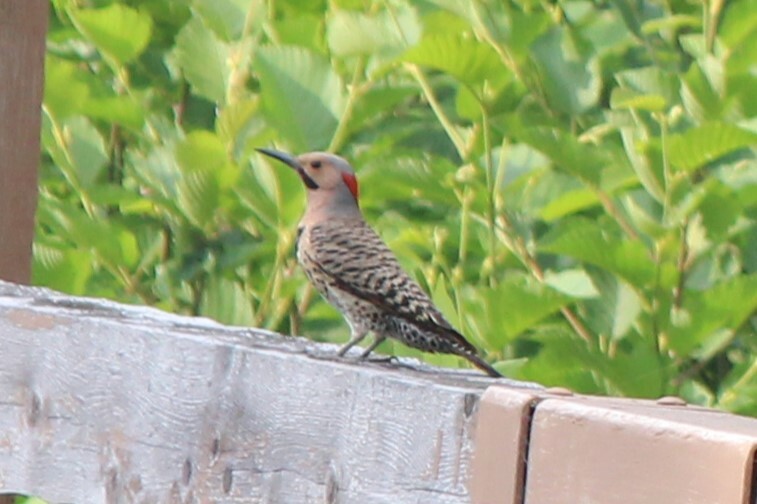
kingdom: Animalia
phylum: Chordata
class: Aves
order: Piciformes
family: Picidae
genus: Colaptes
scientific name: Colaptes auratus
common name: Northern flicker
